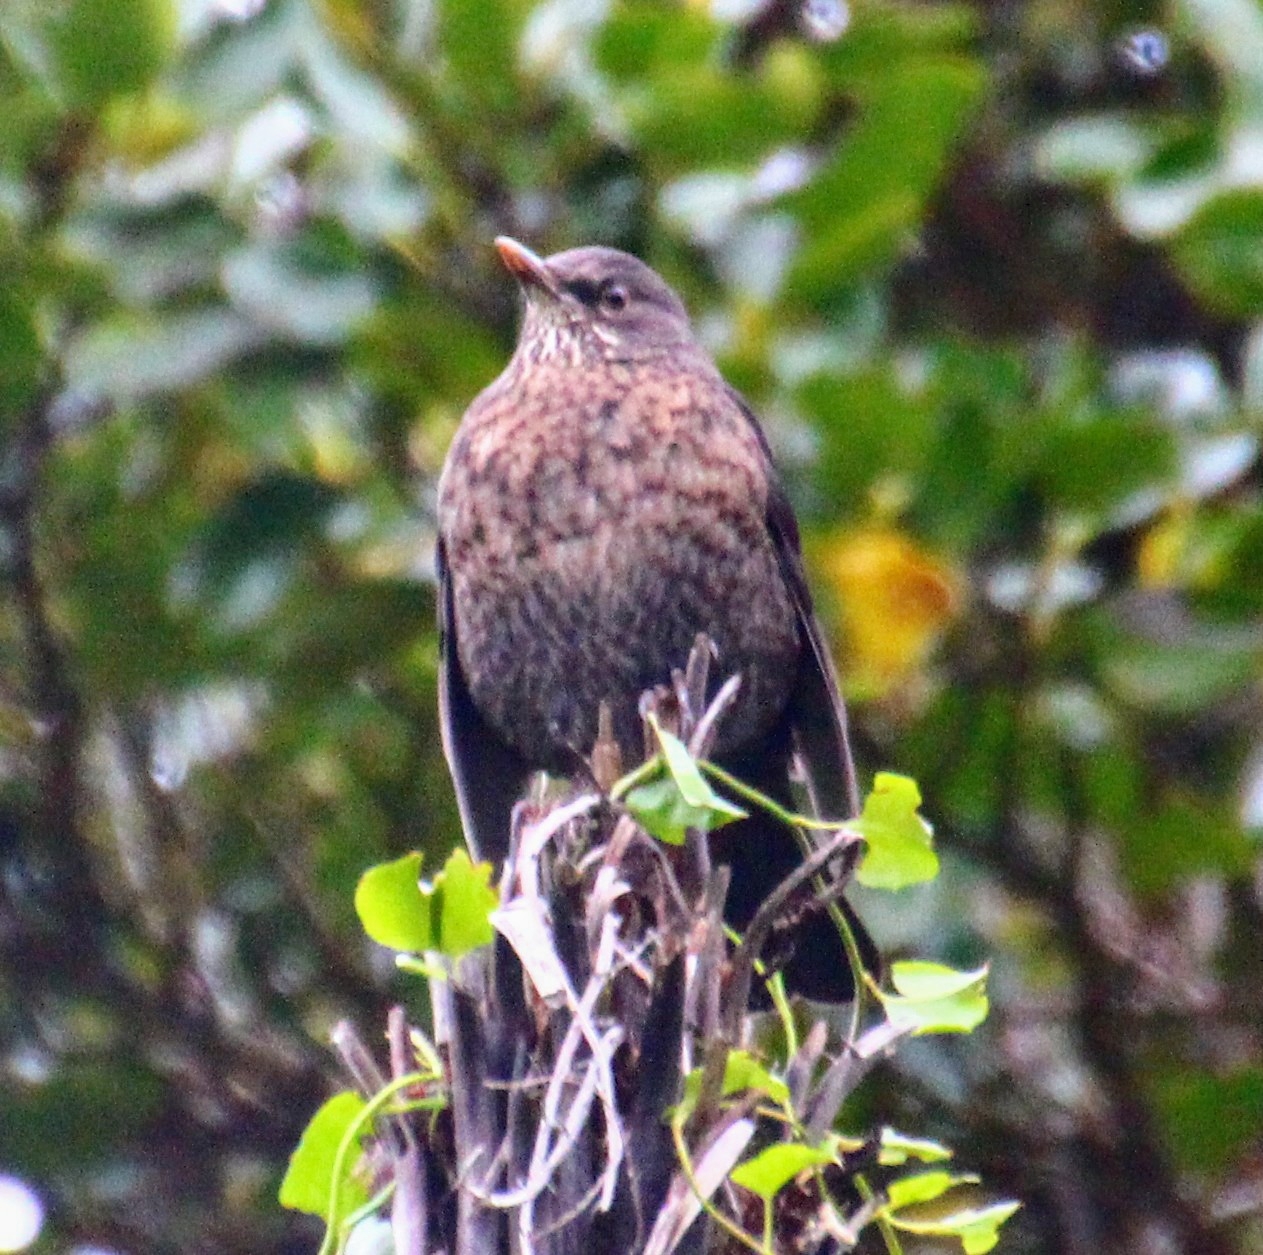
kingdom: Animalia
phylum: Chordata
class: Aves
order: Passeriformes
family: Turdidae
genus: Turdus
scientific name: Turdus merula
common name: Common blackbird
